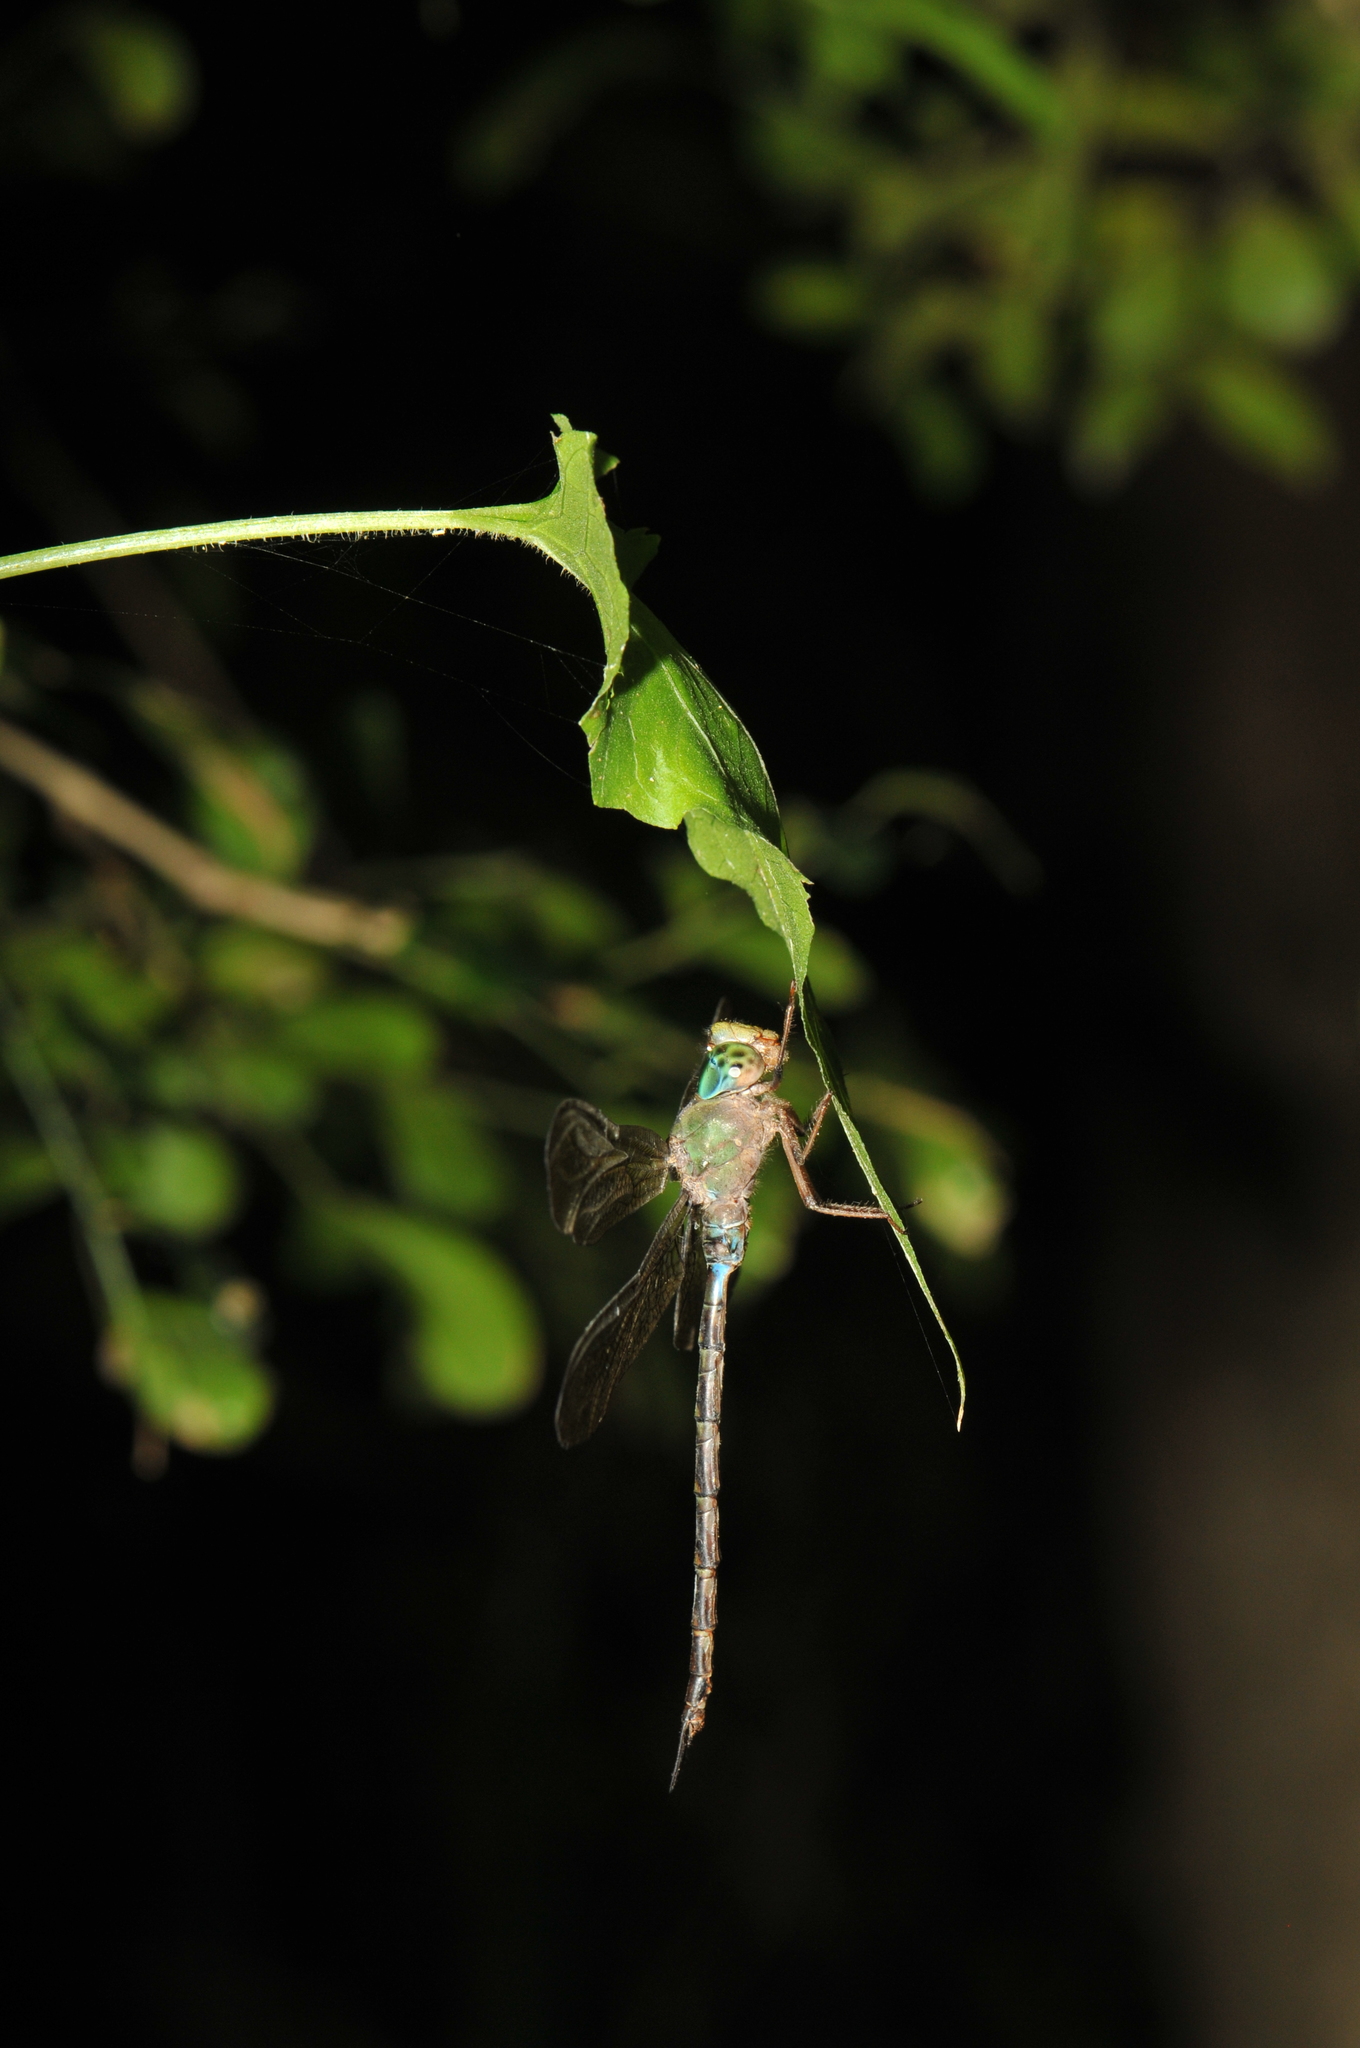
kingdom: Animalia
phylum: Arthropoda
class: Insecta
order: Odonata
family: Aeshnidae
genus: Gynacantha
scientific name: Gynacantha japonica
